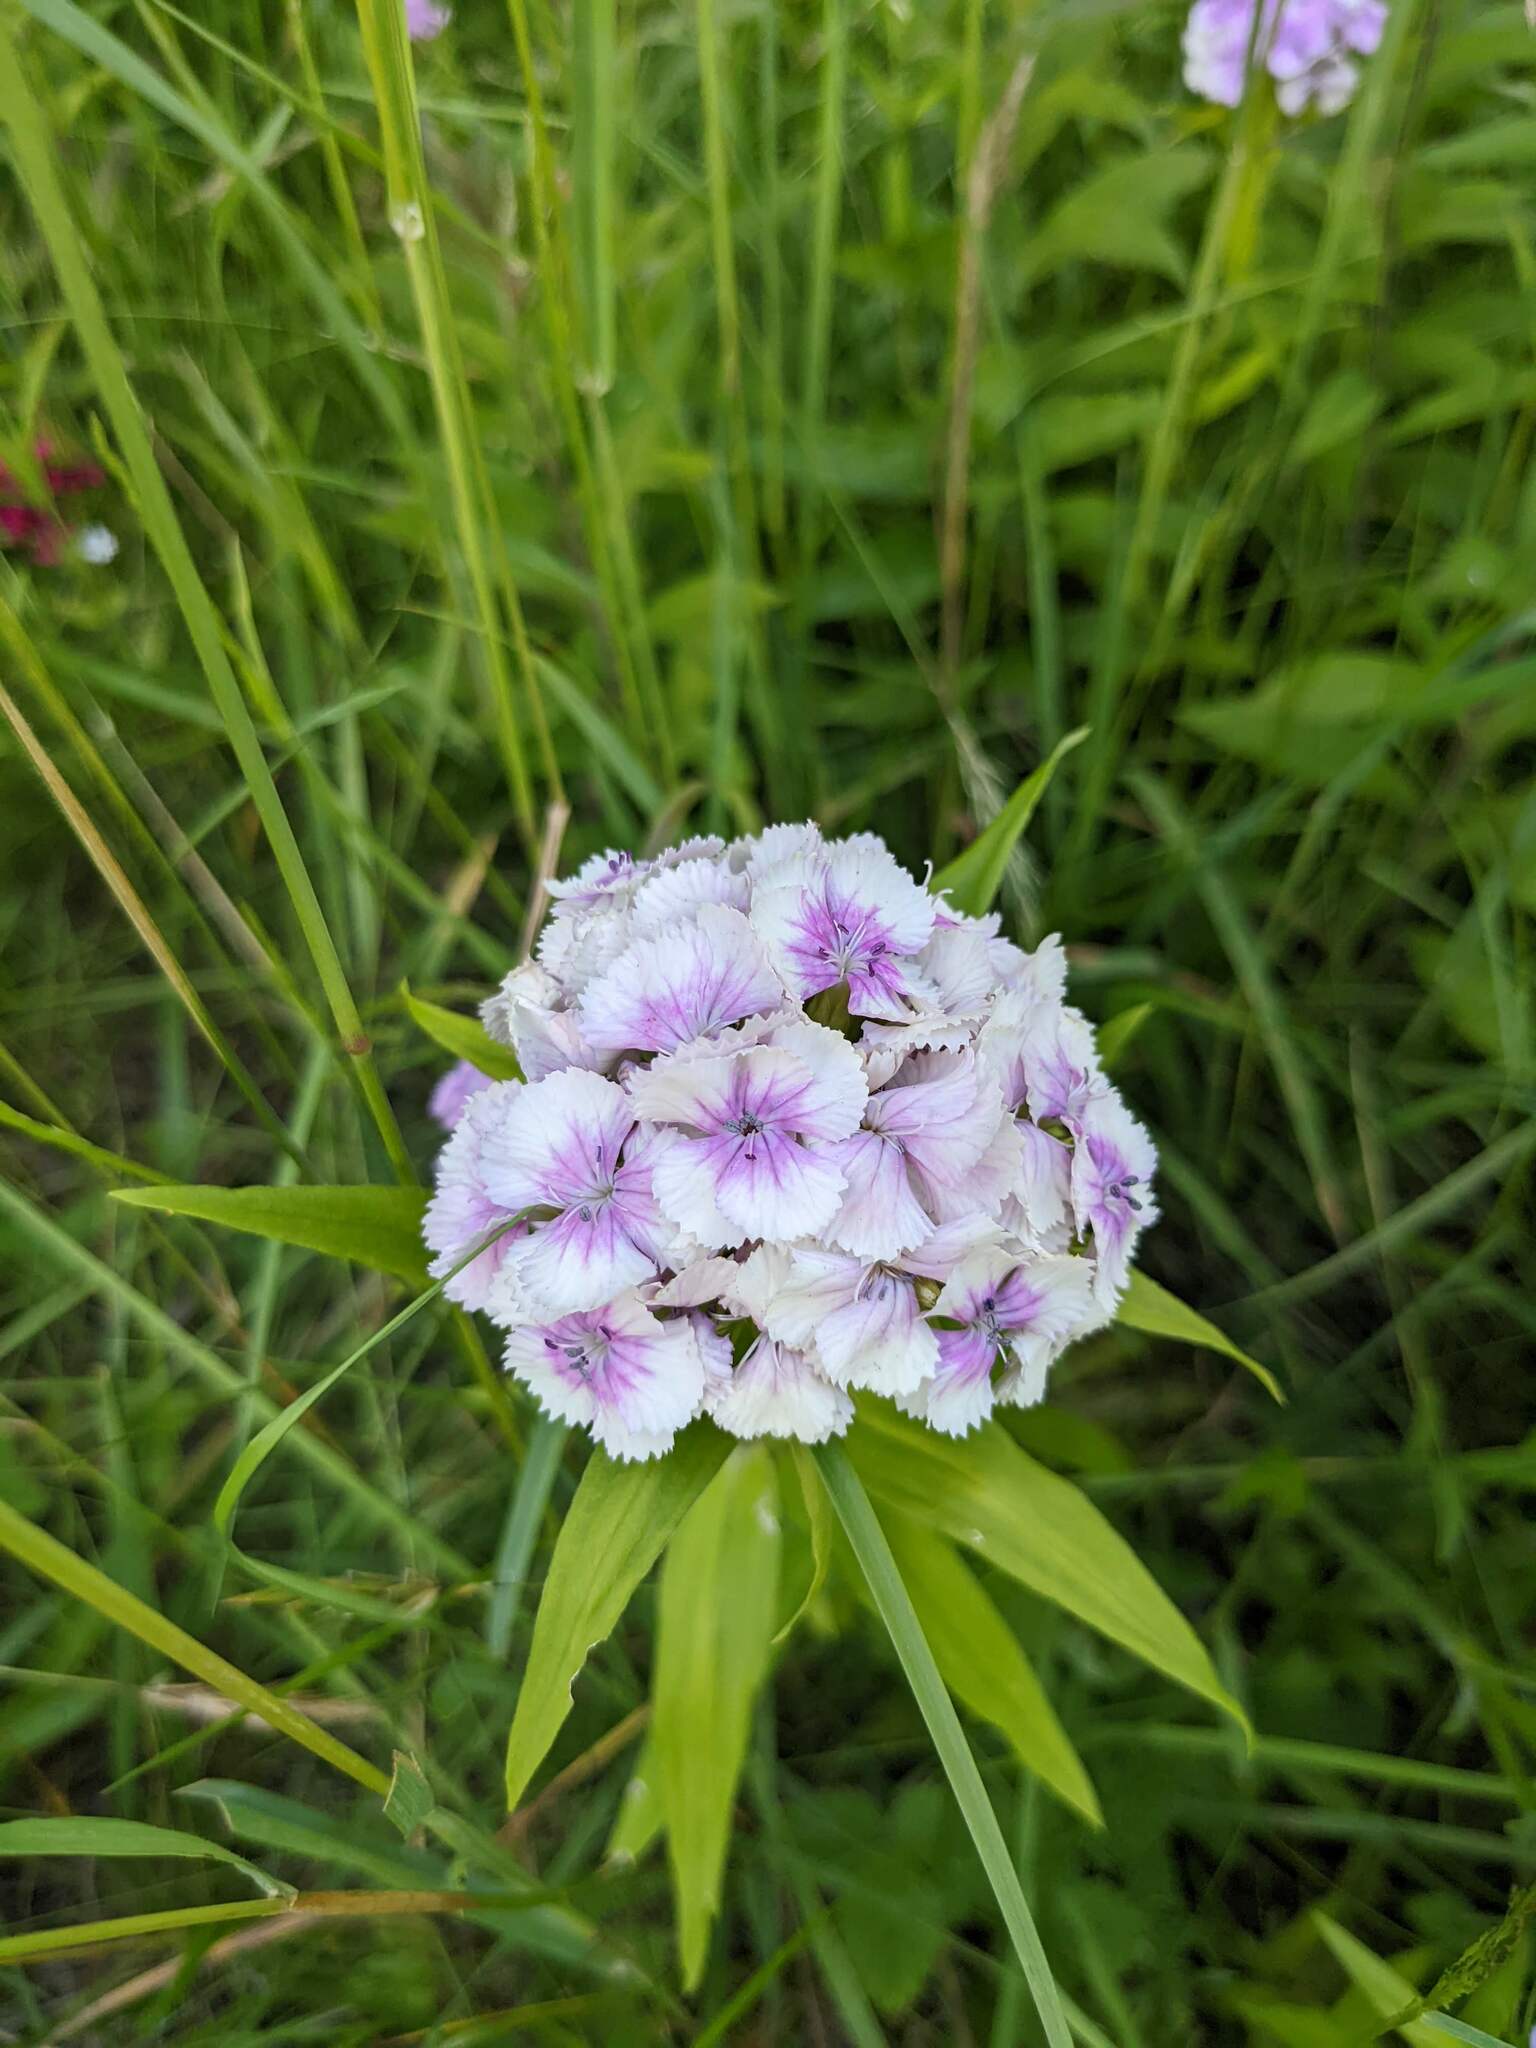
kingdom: Plantae
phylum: Tracheophyta
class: Magnoliopsida
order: Caryophyllales
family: Caryophyllaceae
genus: Dianthus
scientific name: Dianthus barbatus
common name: Sweet-william
